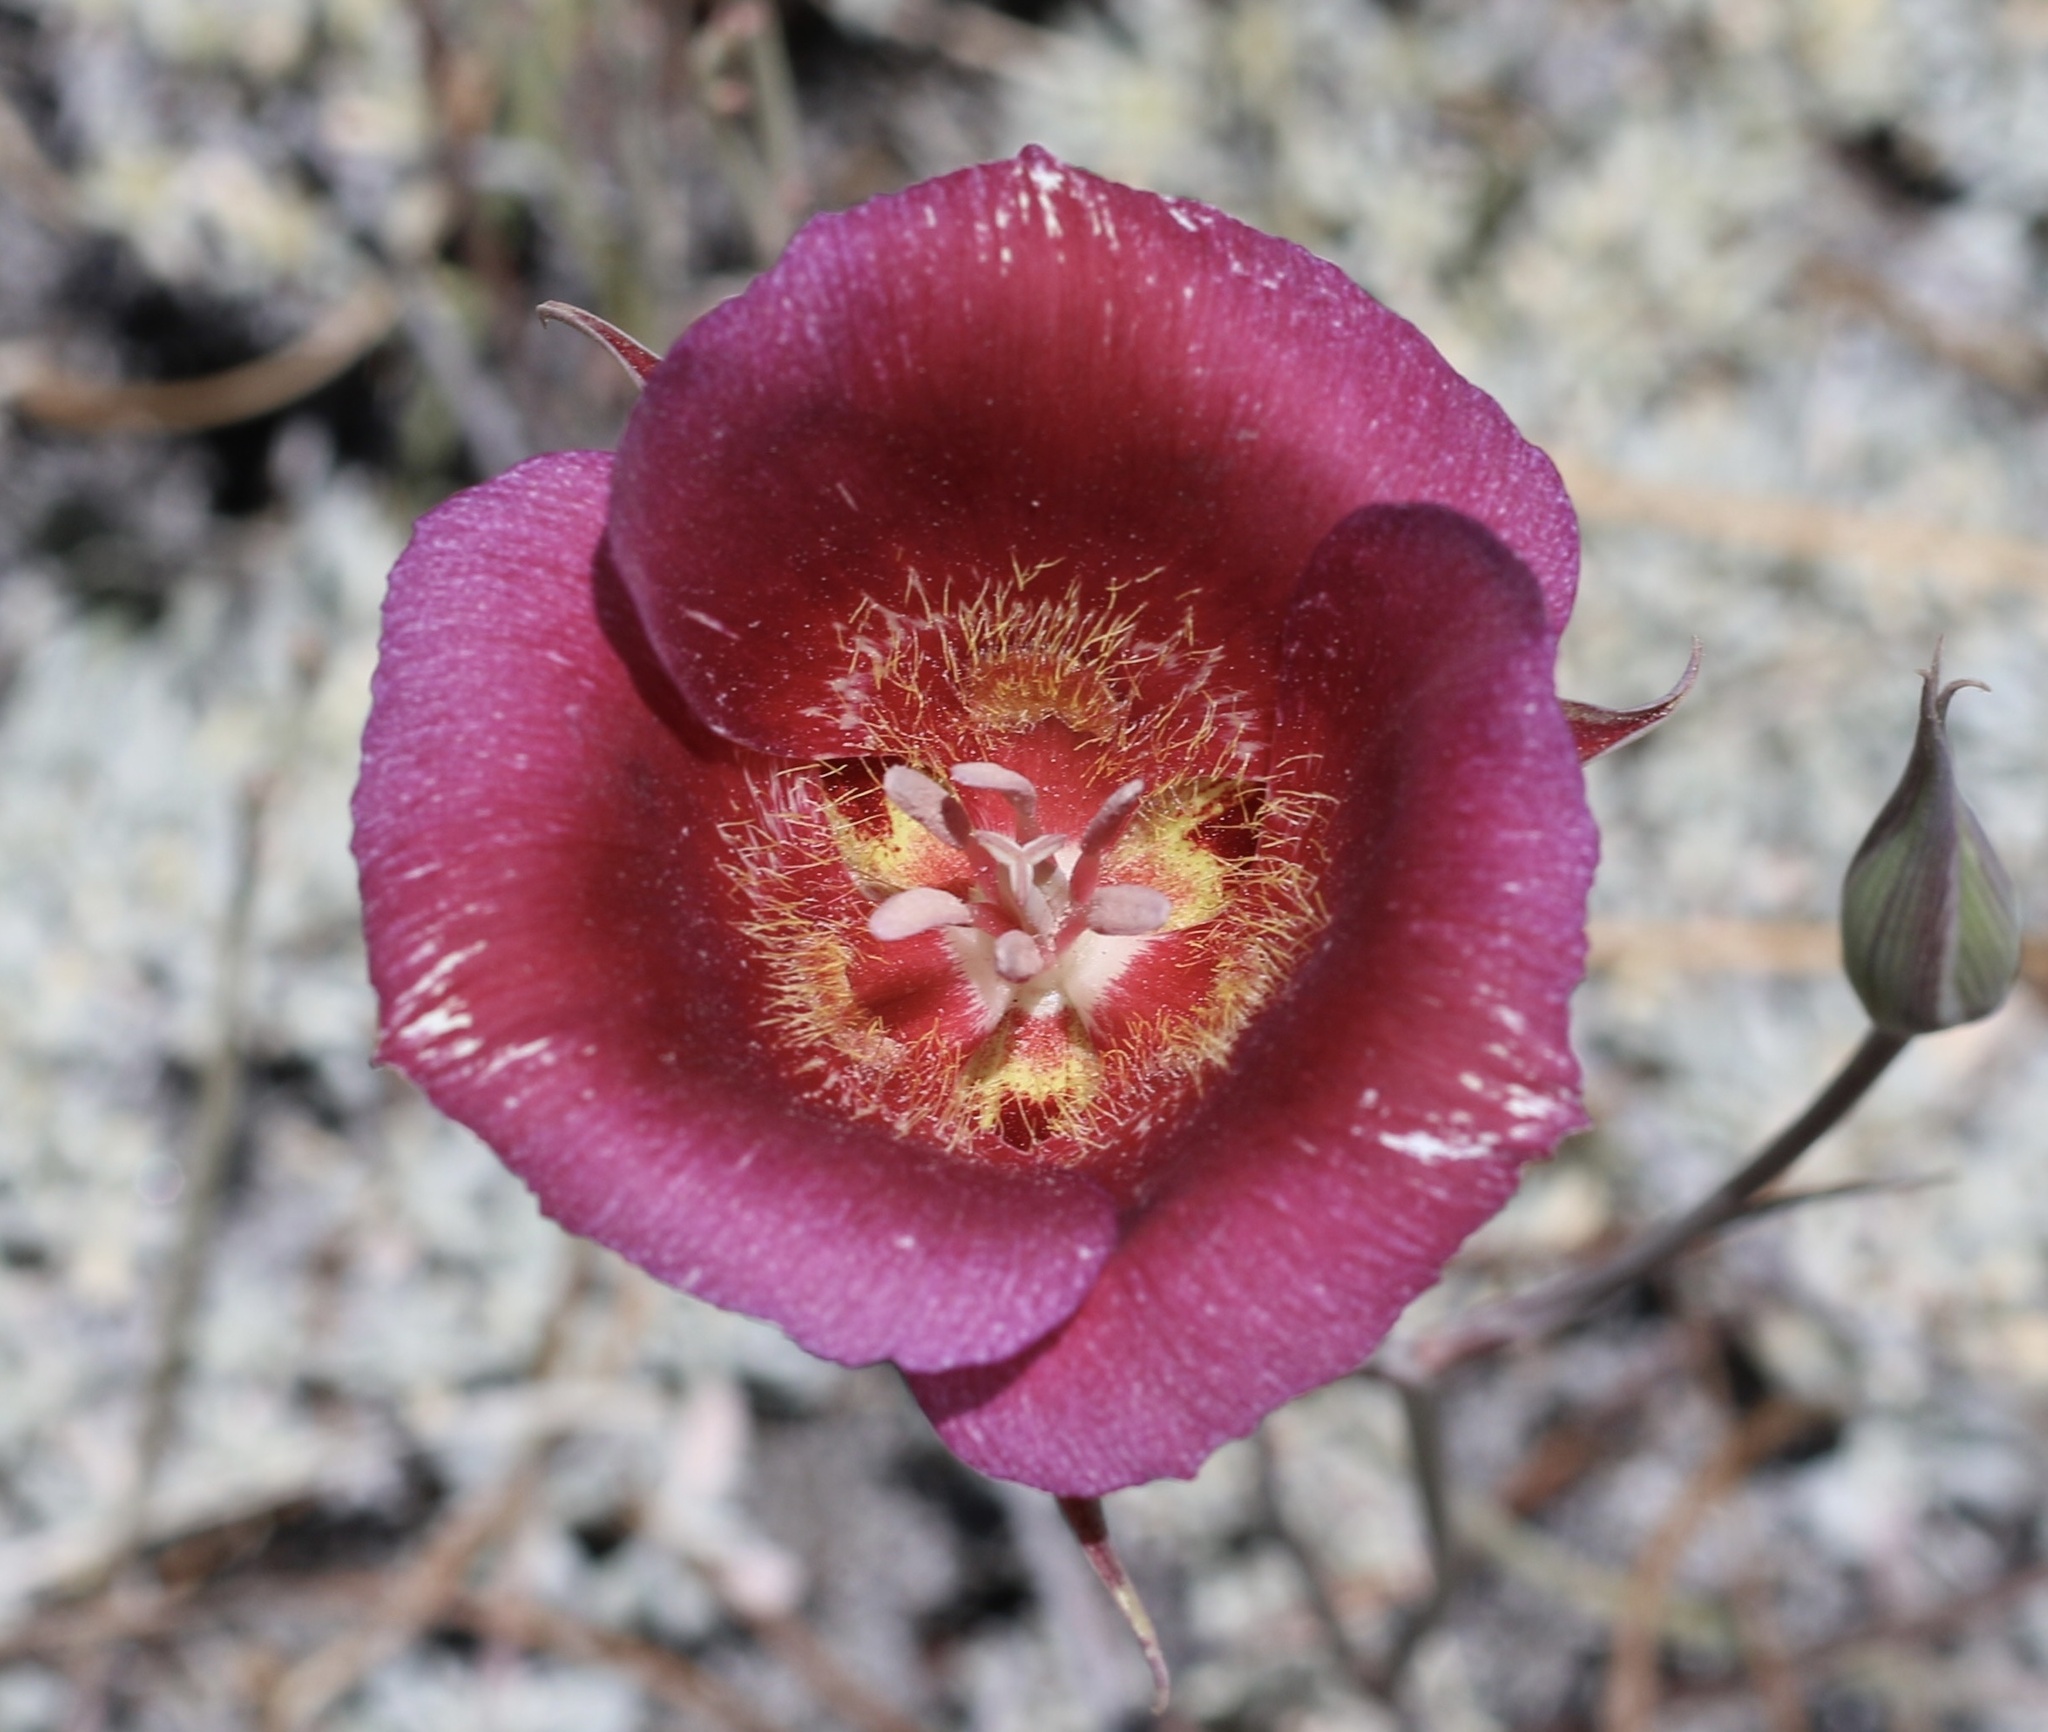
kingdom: Plantae
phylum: Tracheophyta
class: Liliopsida
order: Liliales
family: Liliaceae
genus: Calochortus
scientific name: Calochortus venustus
